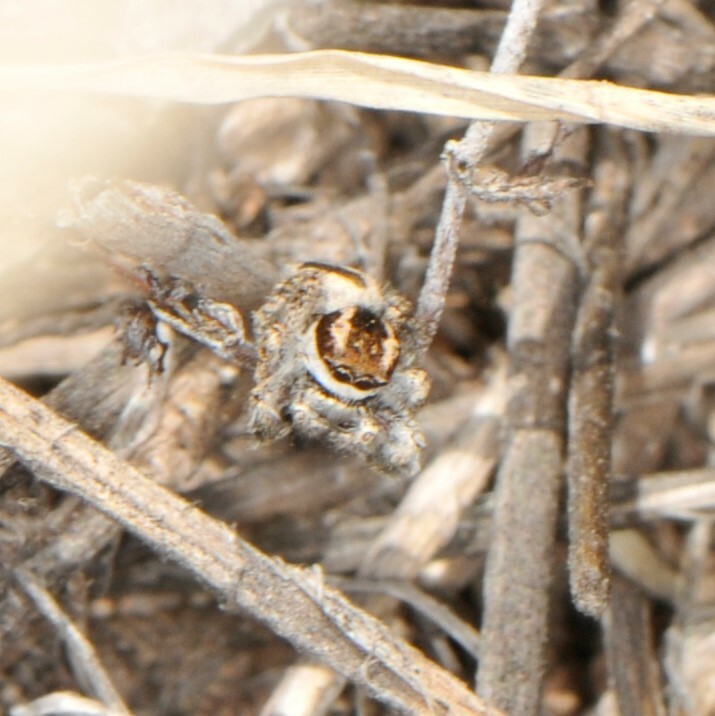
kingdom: Animalia
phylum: Arthropoda
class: Arachnida
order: Araneae
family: Salticidae
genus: Habronattus
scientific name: Habronattus conjunctus
